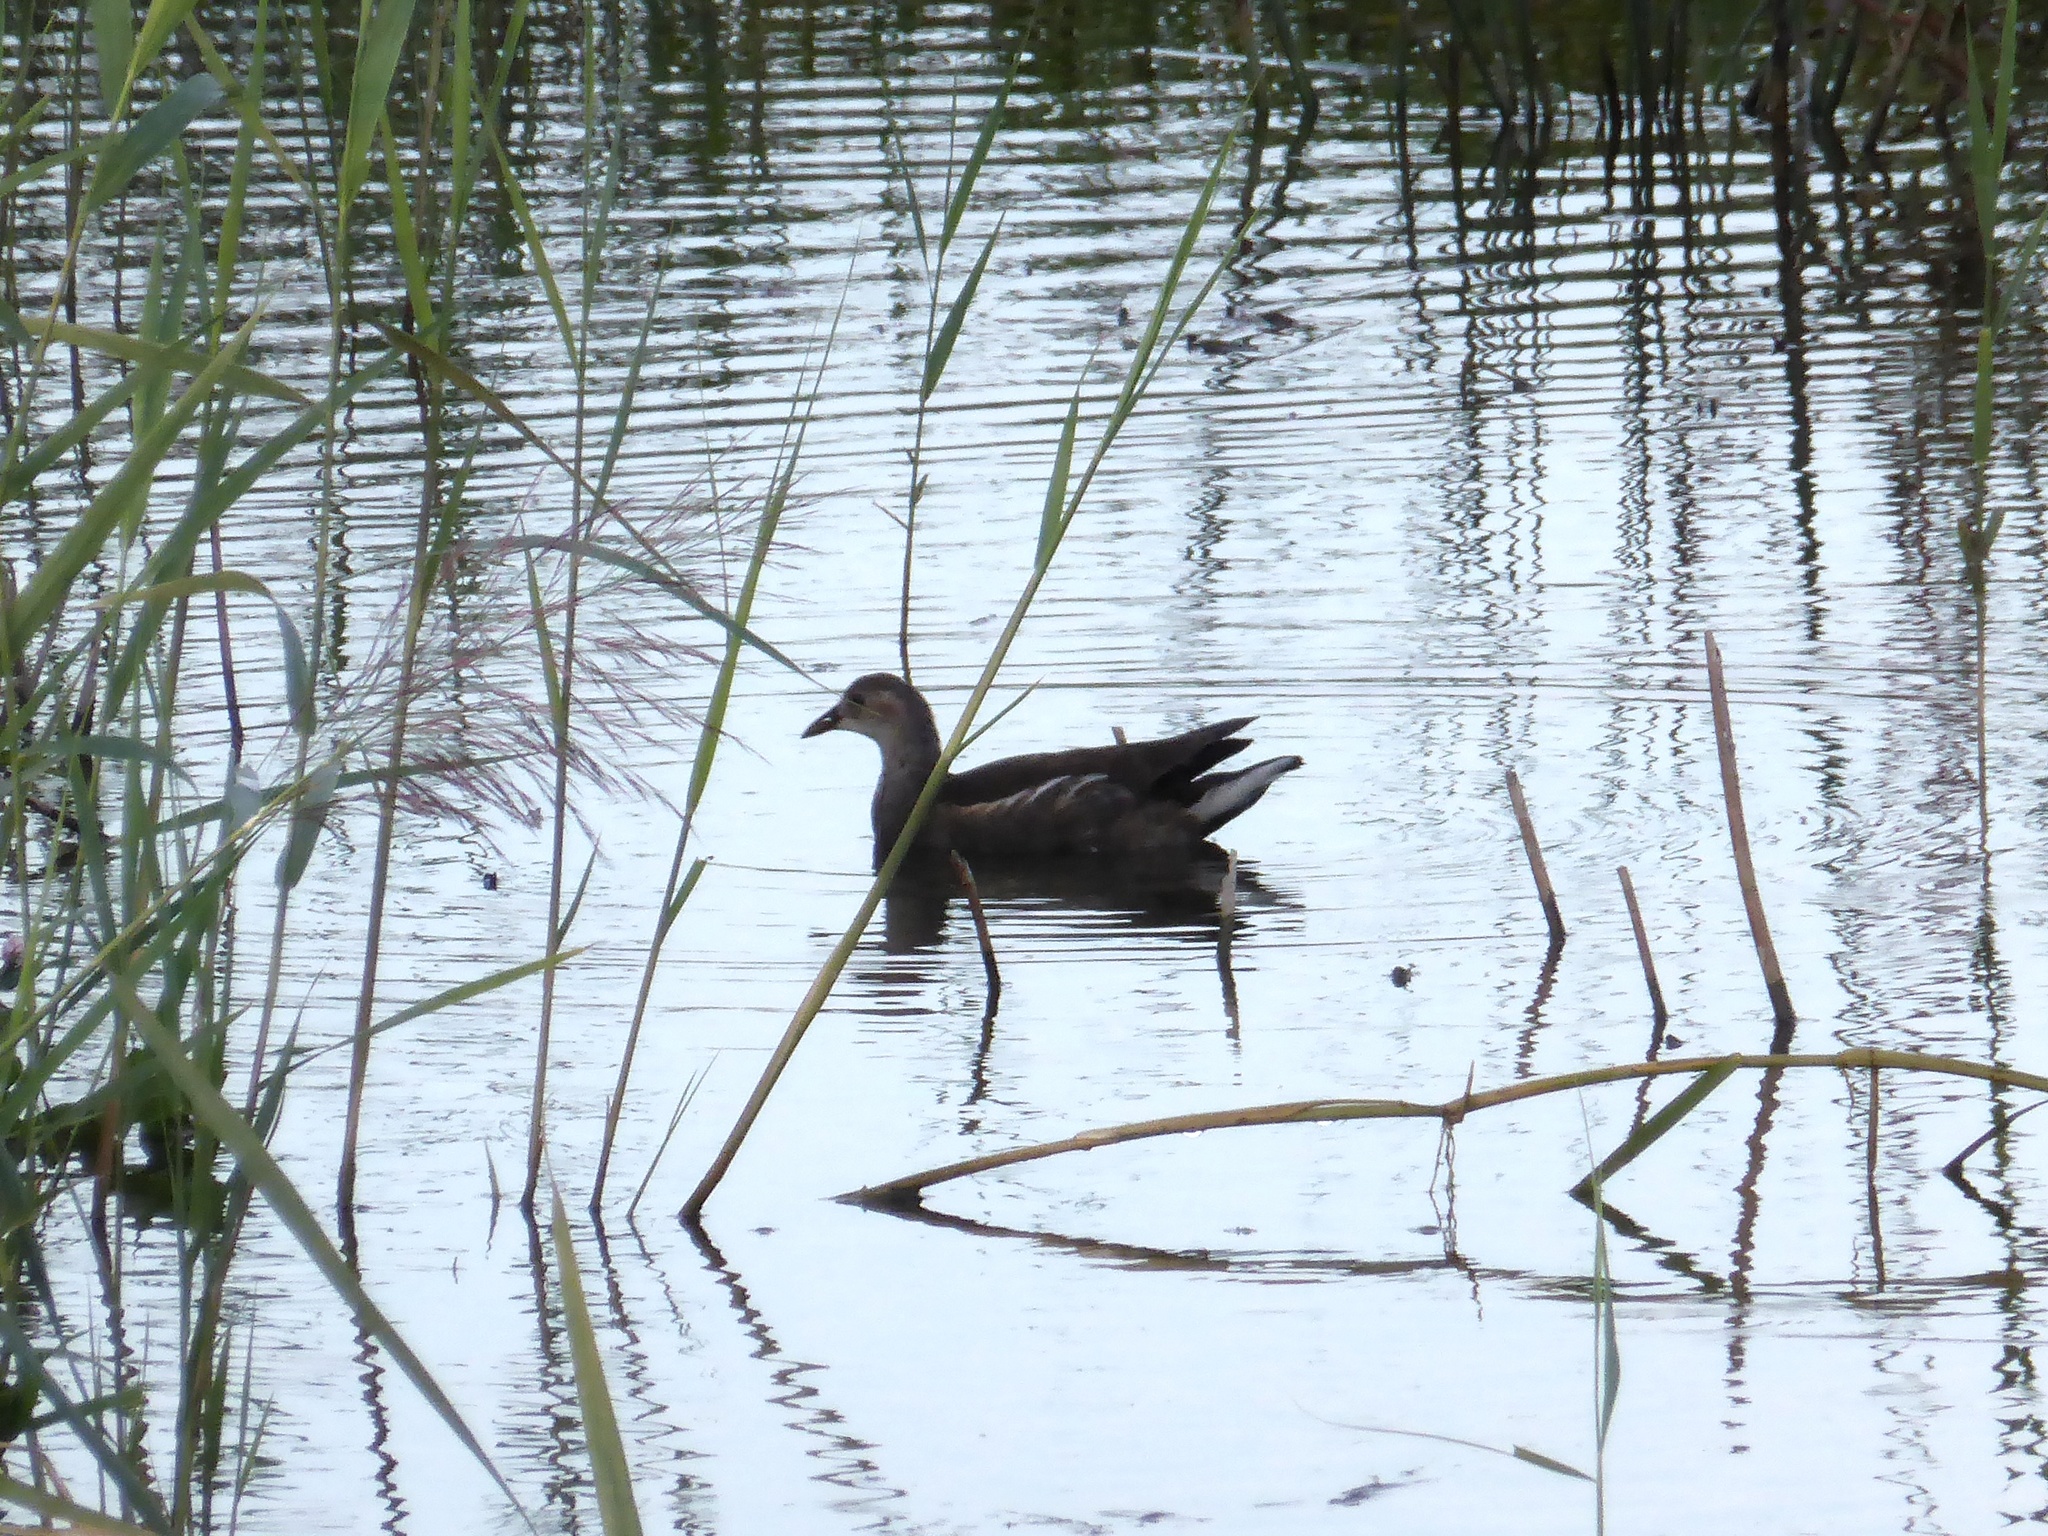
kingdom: Animalia
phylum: Chordata
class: Aves
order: Gruiformes
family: Rallidae
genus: Gallinula
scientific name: Gallinula chloropus
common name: Common moorhen
